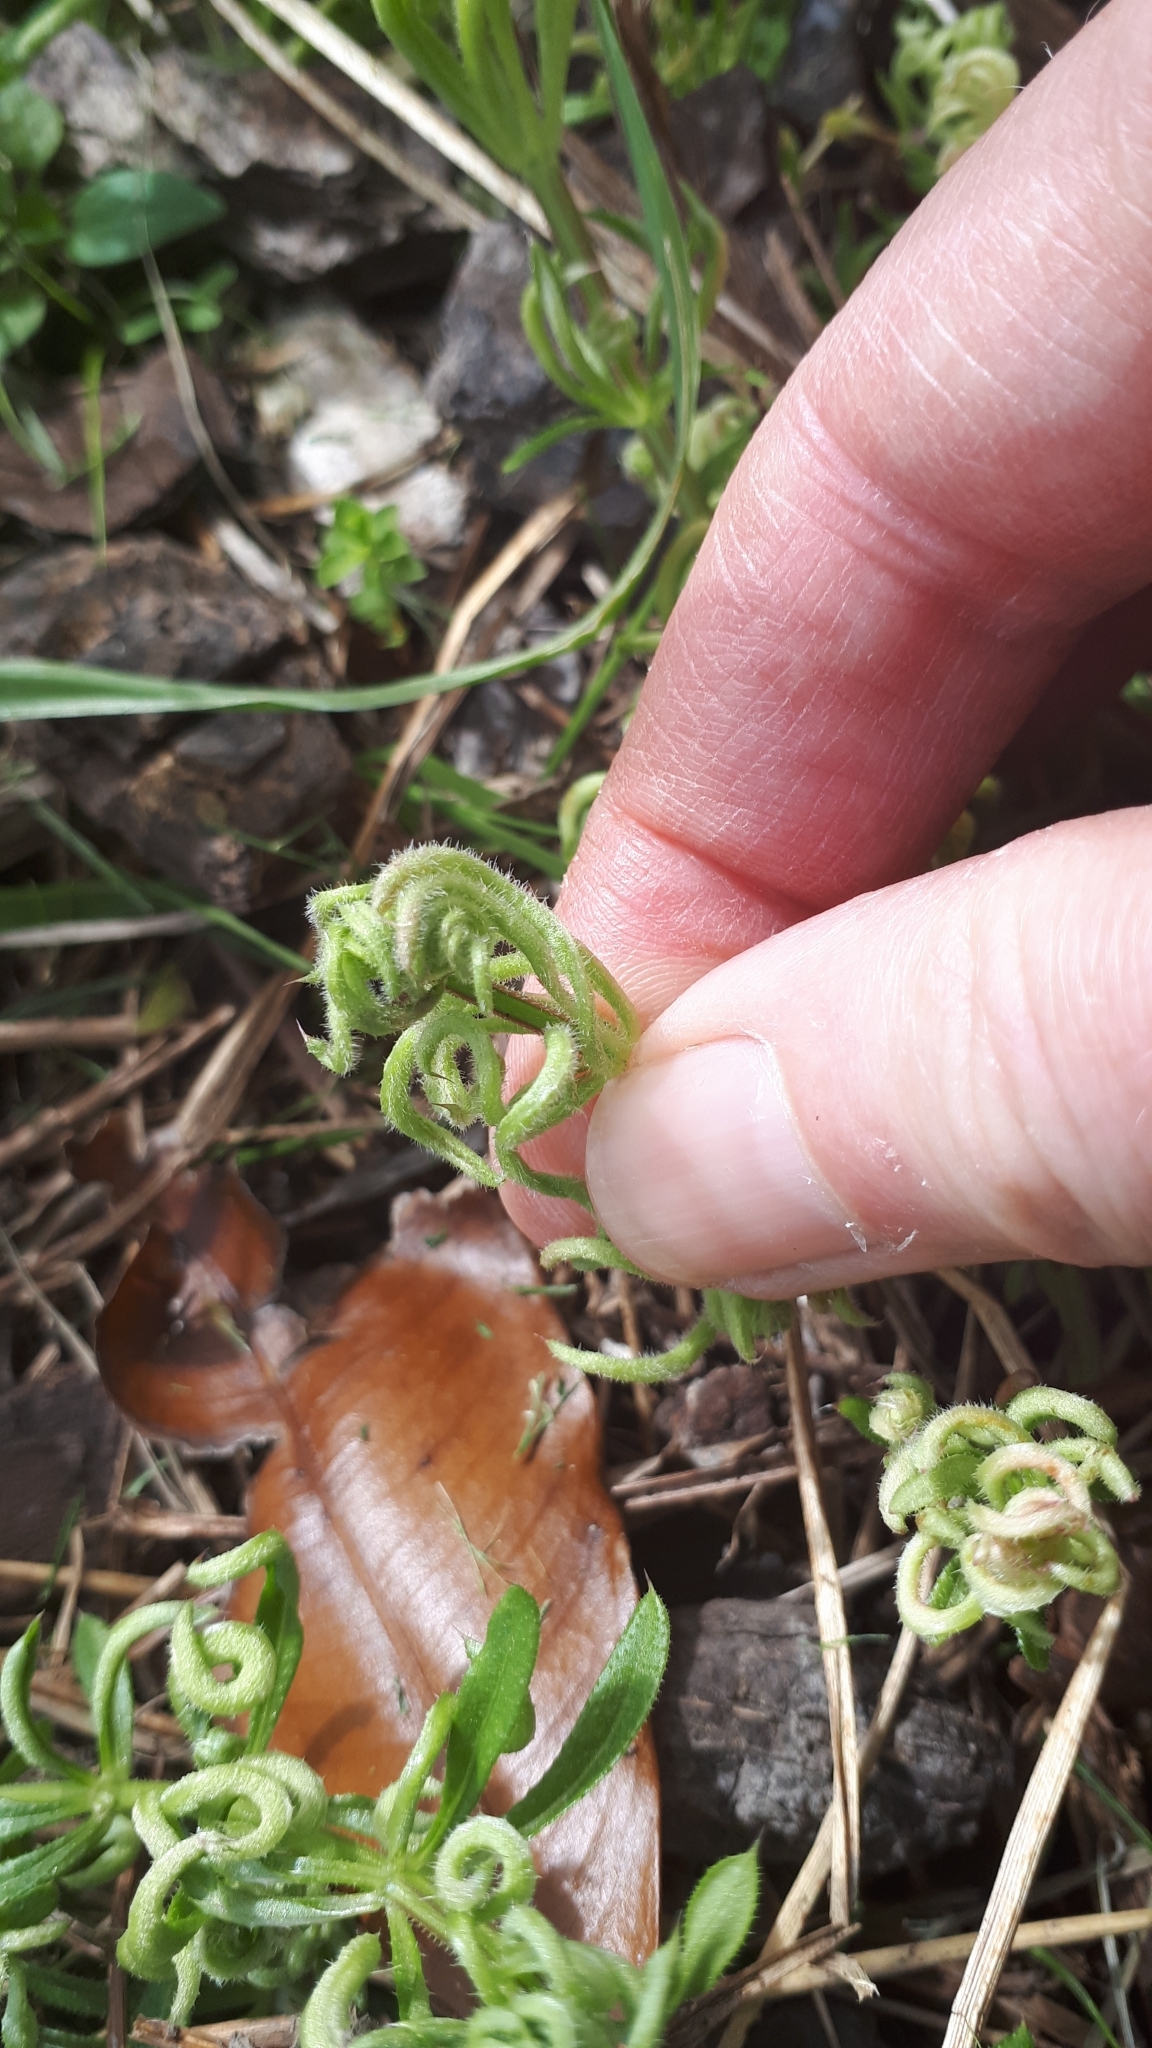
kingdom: Animalia
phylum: Arthropoda
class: Arachnida
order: Trombidiformes
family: Eriophyidae
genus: Cecidophyes
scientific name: Cecidophyes rouhollahi
